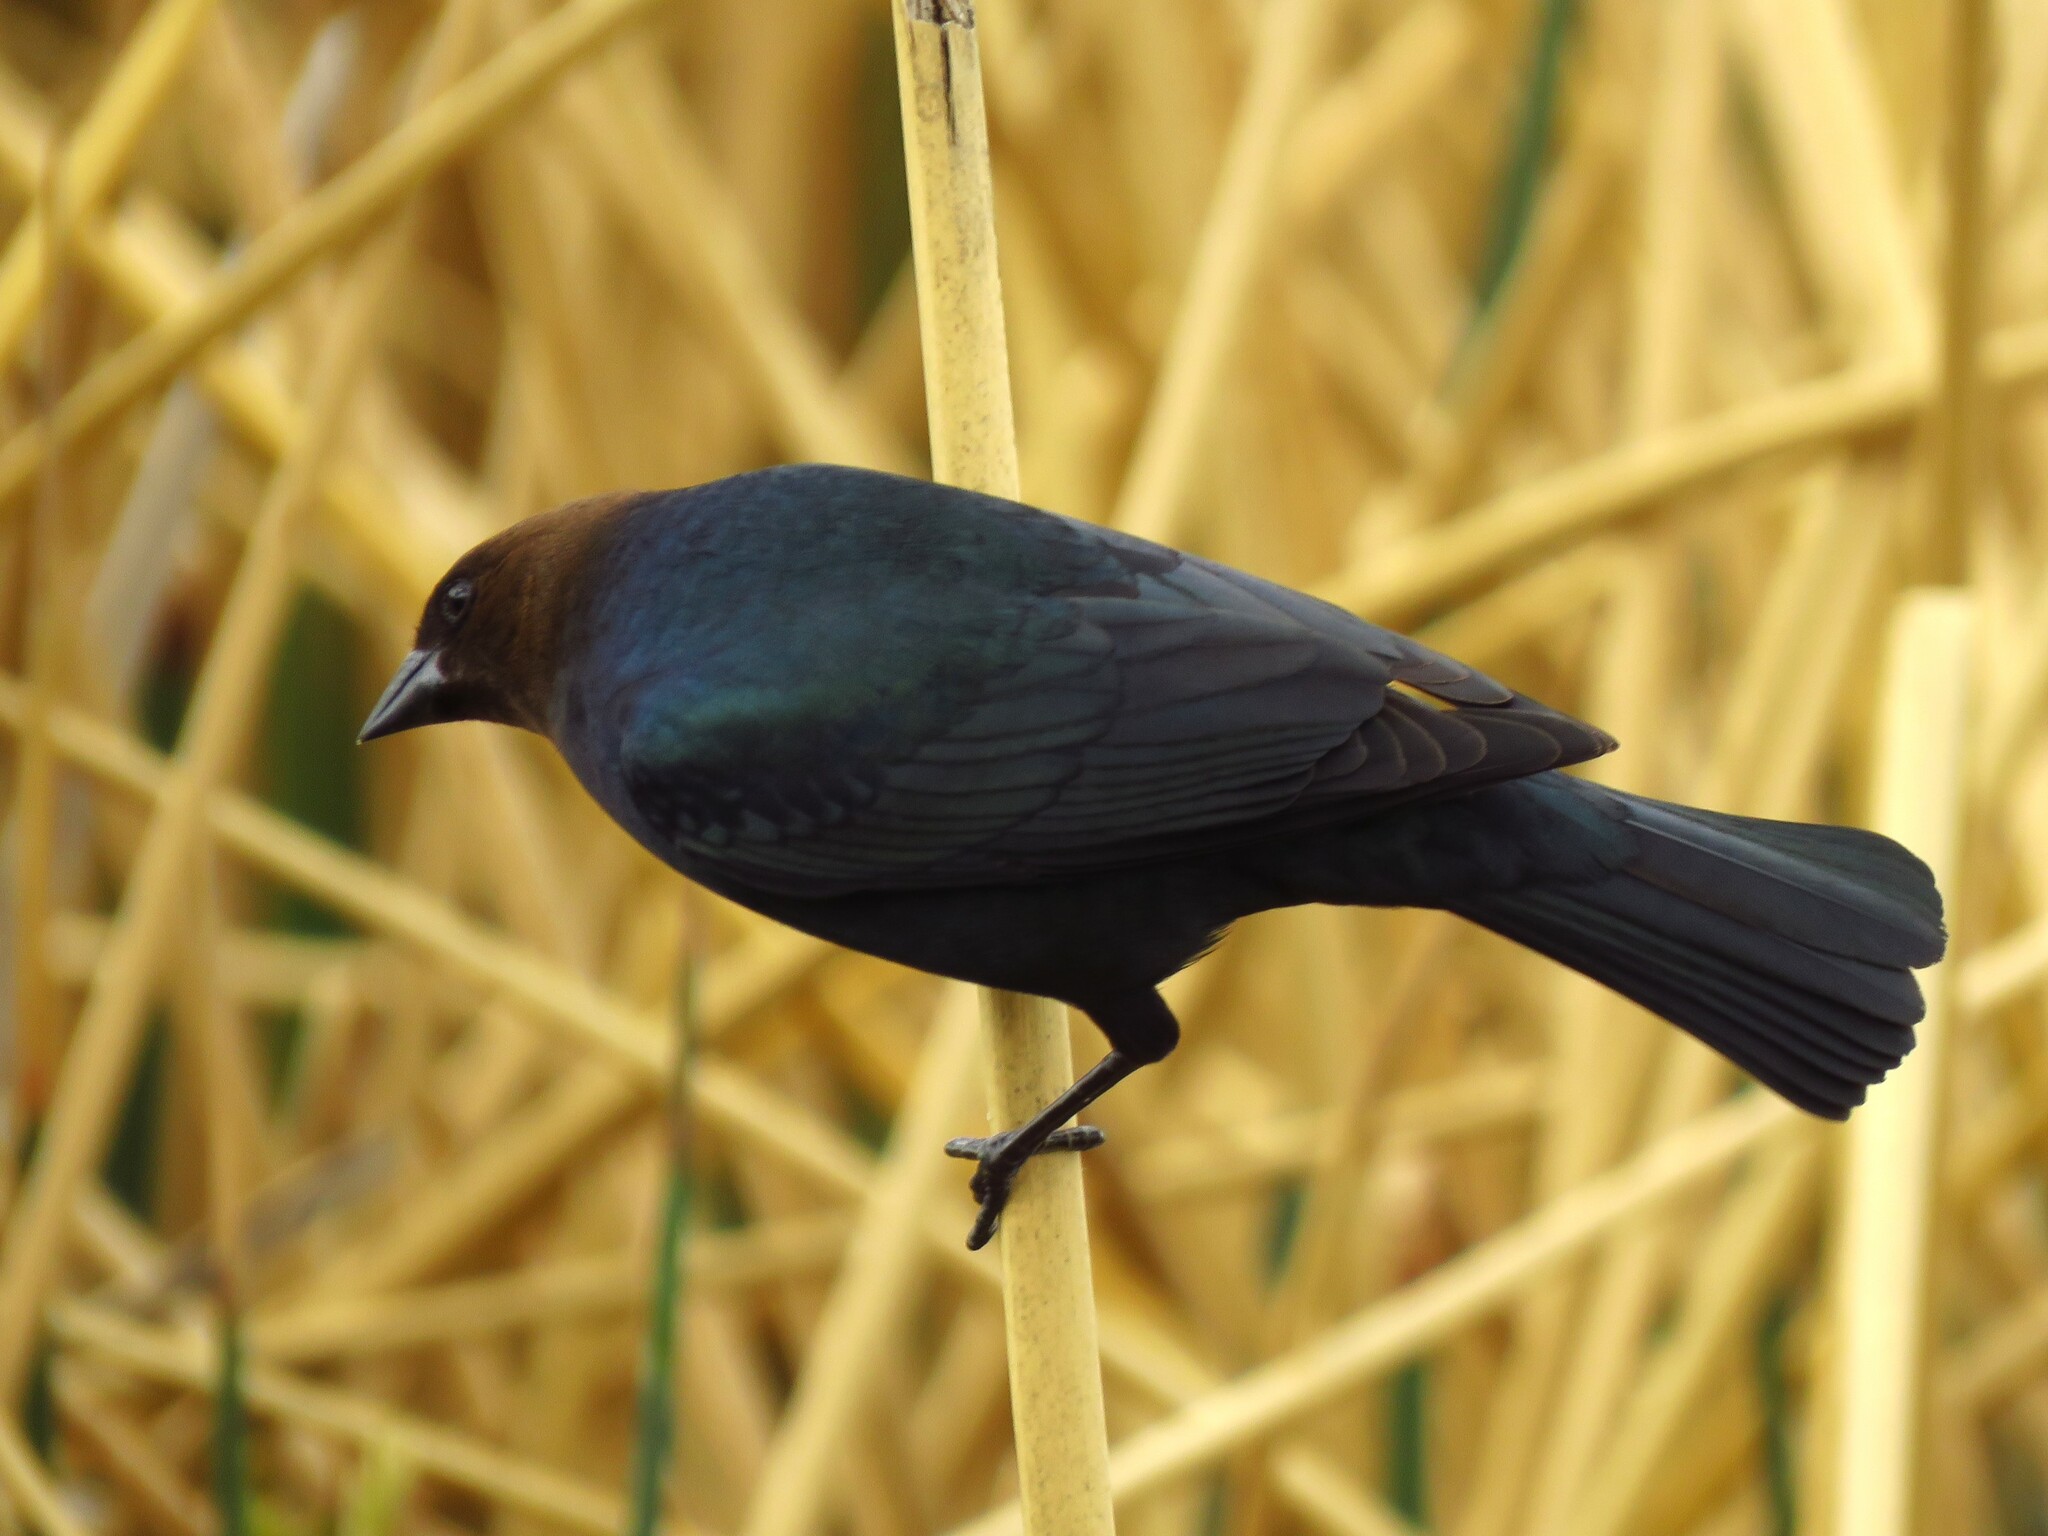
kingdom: Animalia
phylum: Chordata
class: Aves
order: Passeriformes
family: Icteridae
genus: Molothrus
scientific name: Molothrus ater
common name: Brown-headed cowbird
